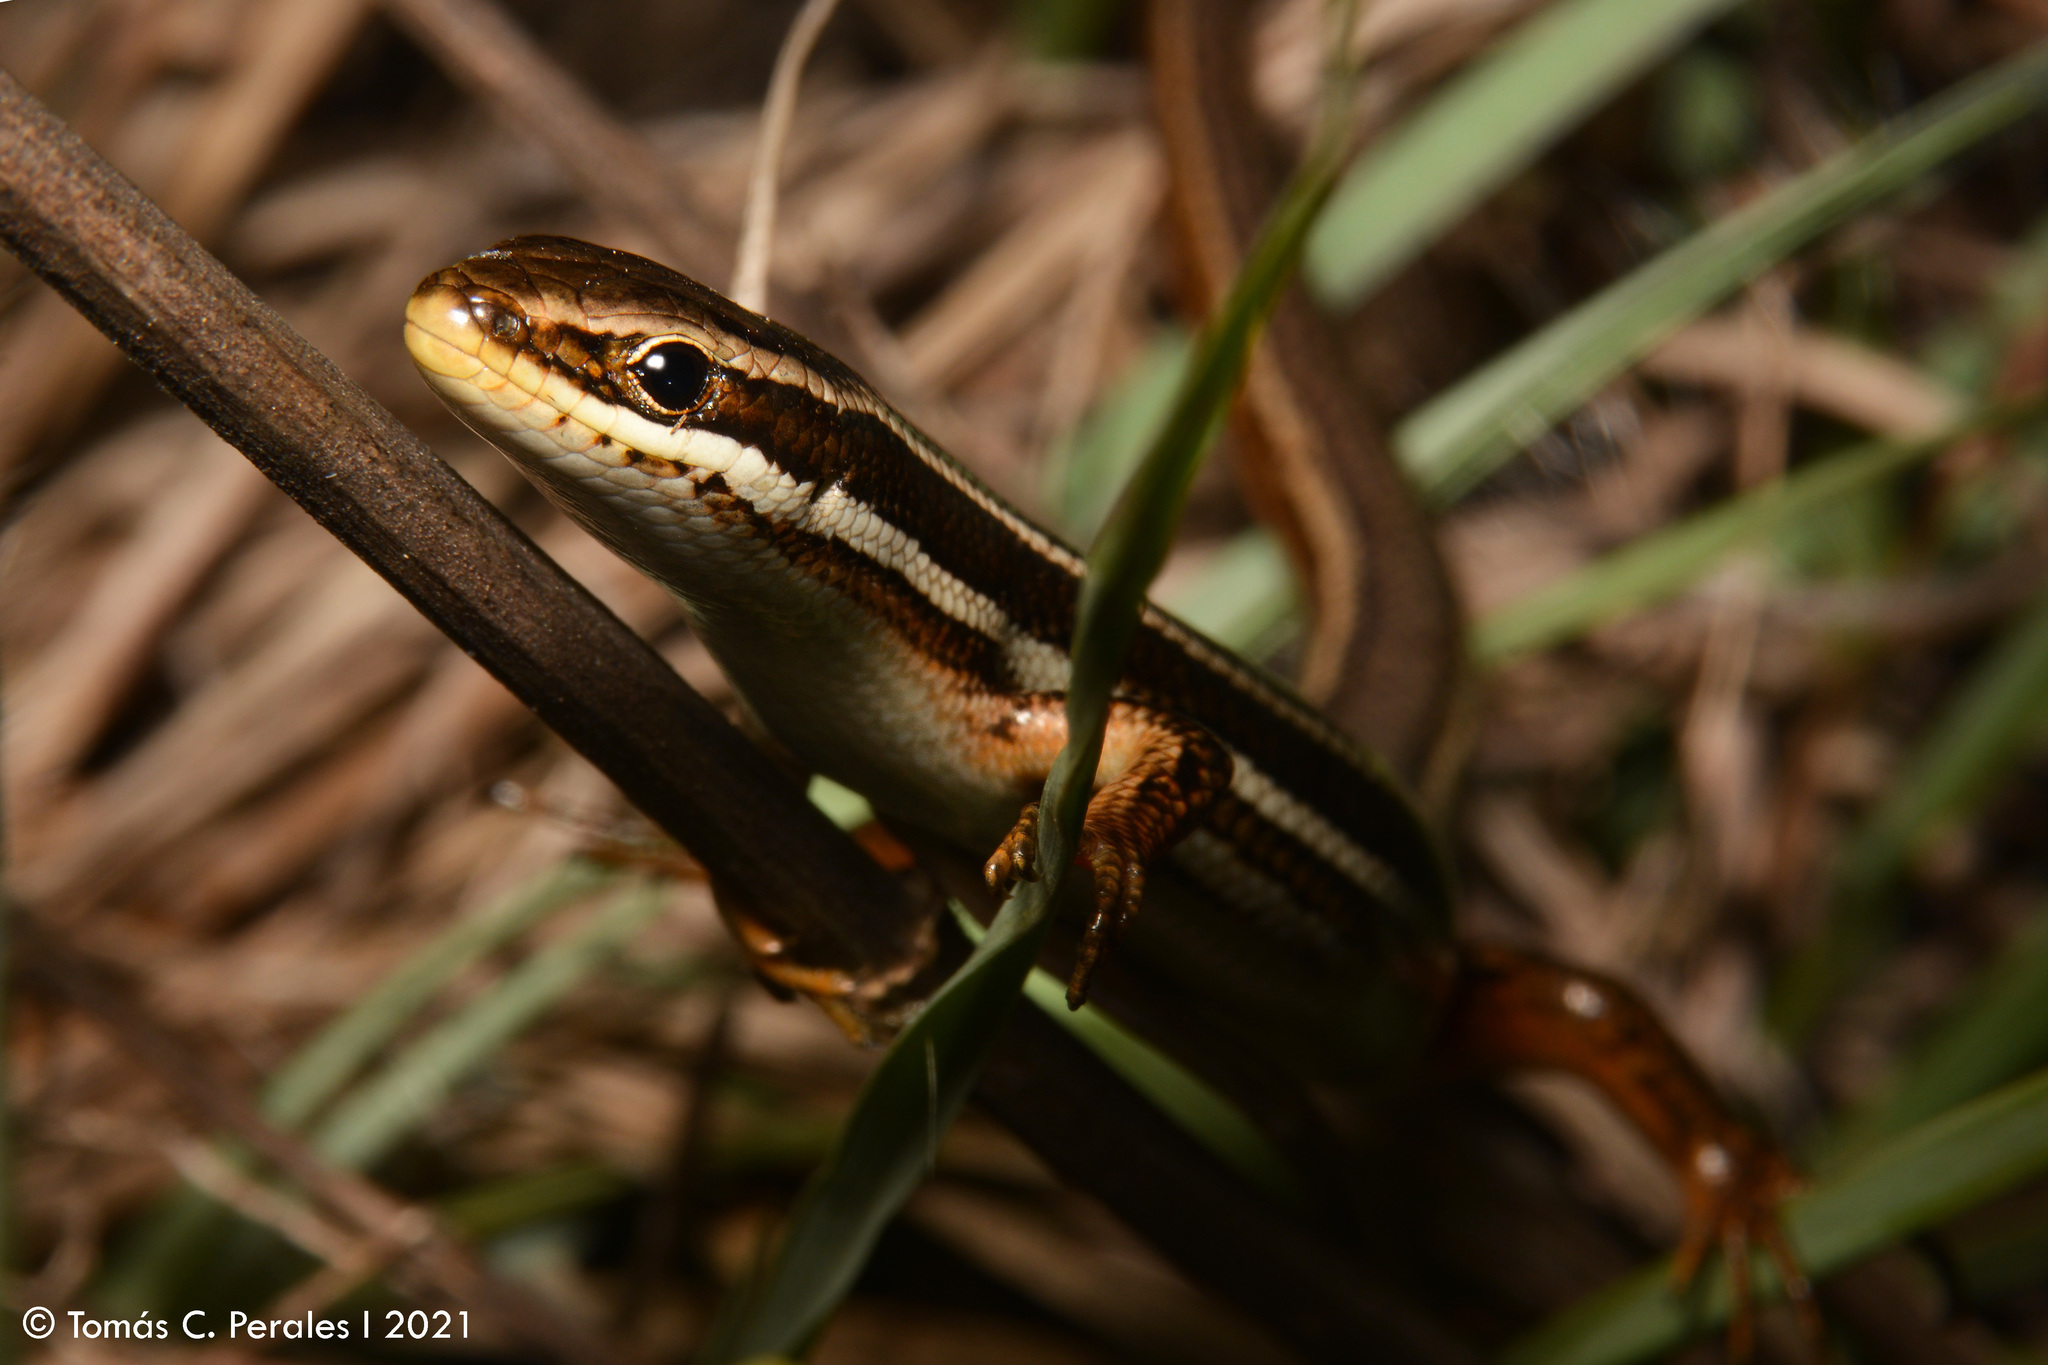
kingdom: Animalia
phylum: Chordata
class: Squamata
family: Scincidae
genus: Aspronema
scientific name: Aspronema dorsivittatum
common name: Paraguay mabuya
